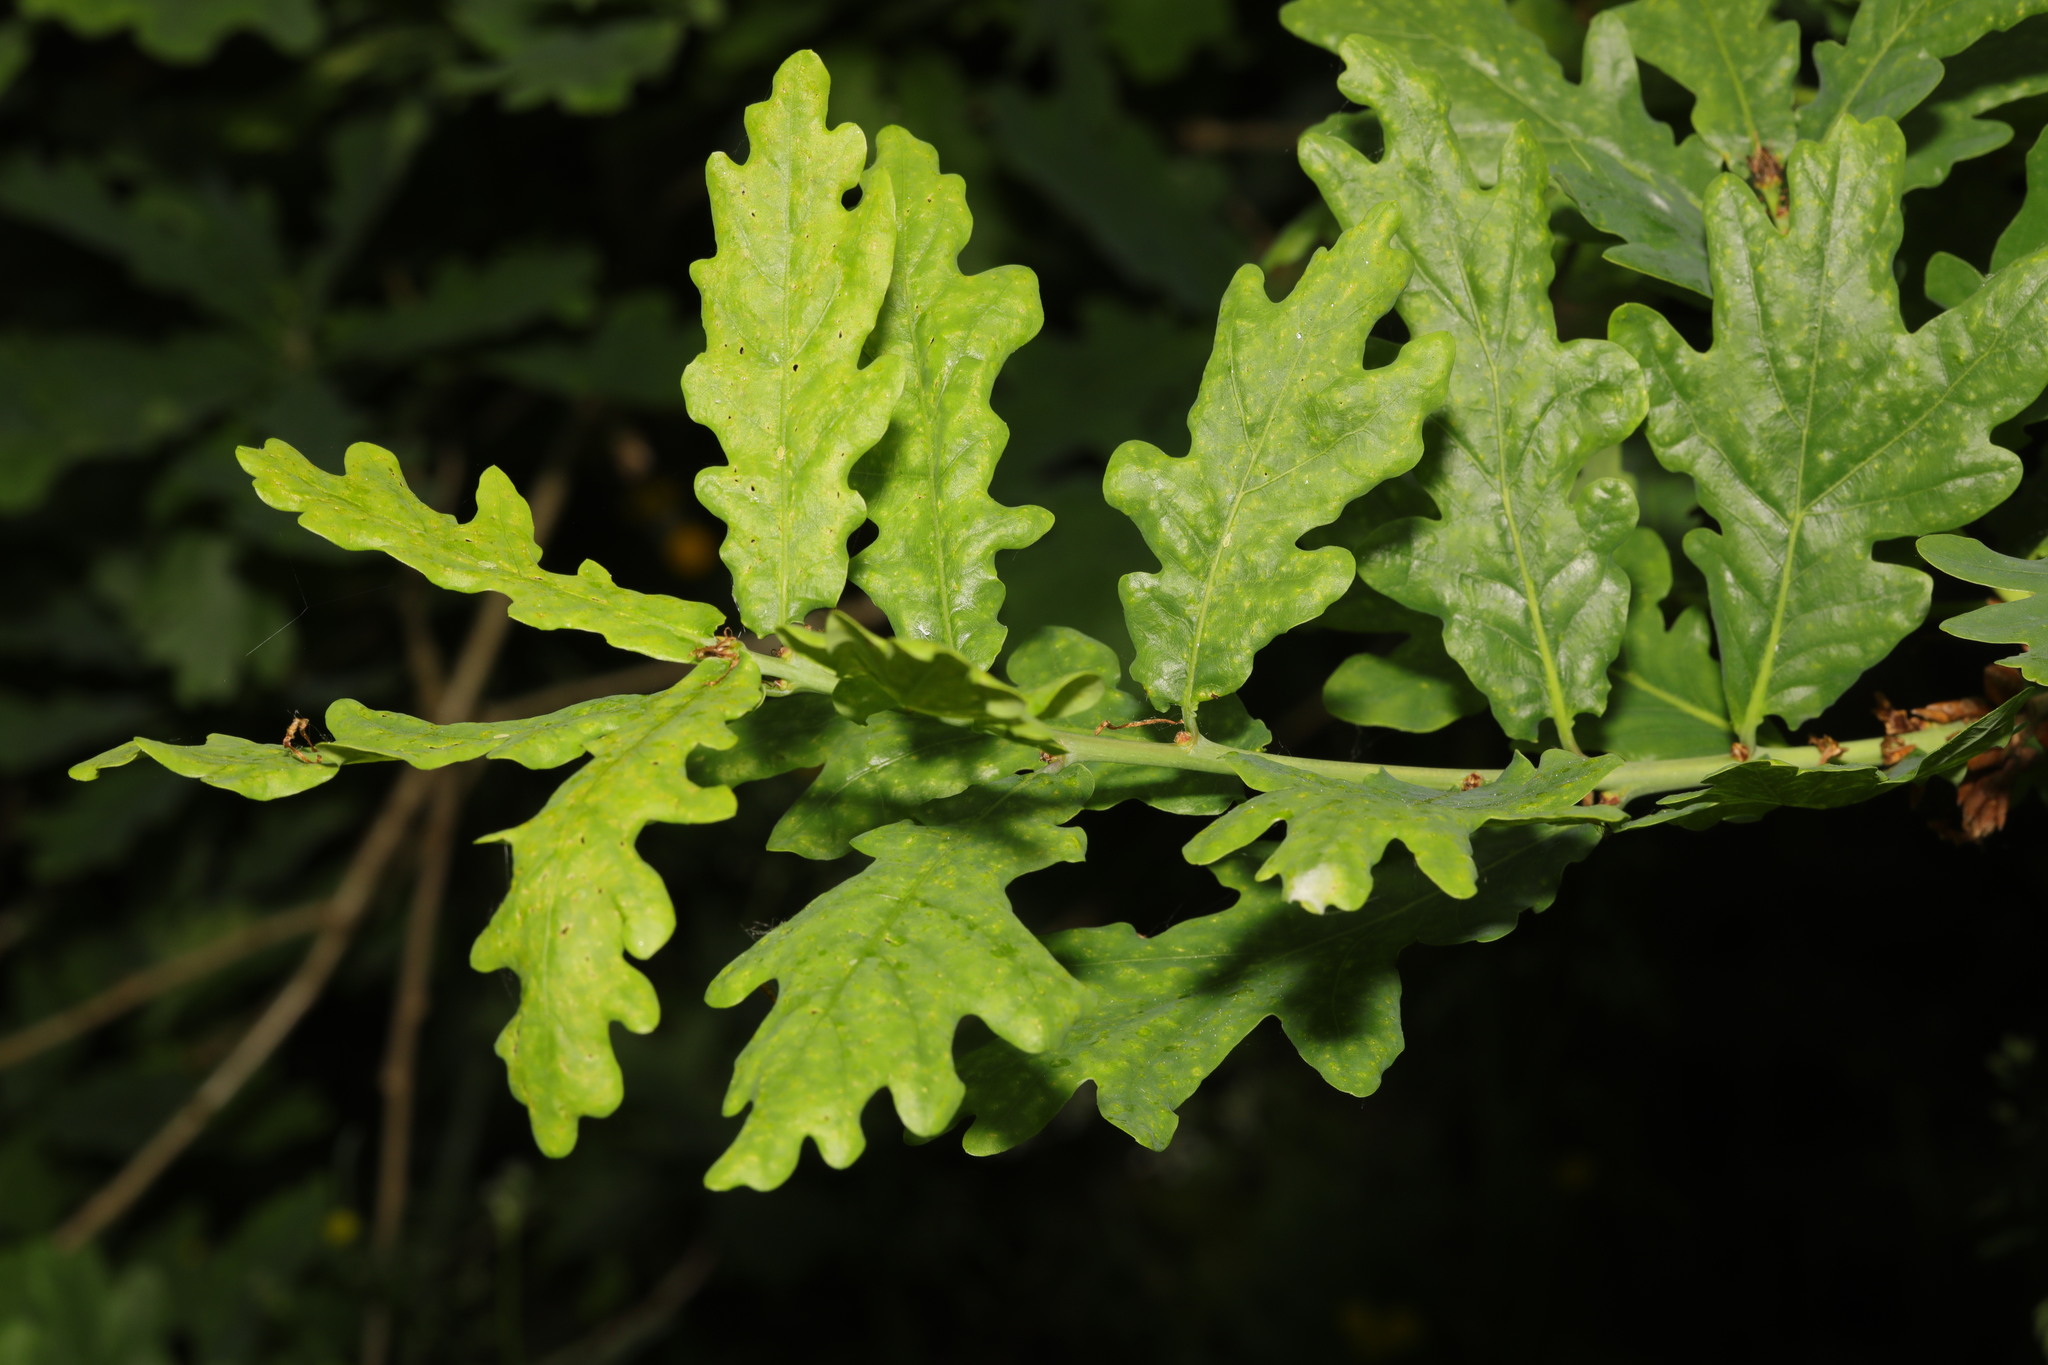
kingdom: Plantae
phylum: Tracheophyta
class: Magnoliopsida
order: Fagales
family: Fagaceae
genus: Quercus
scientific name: Quercus robur
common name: Pedunculate oak
